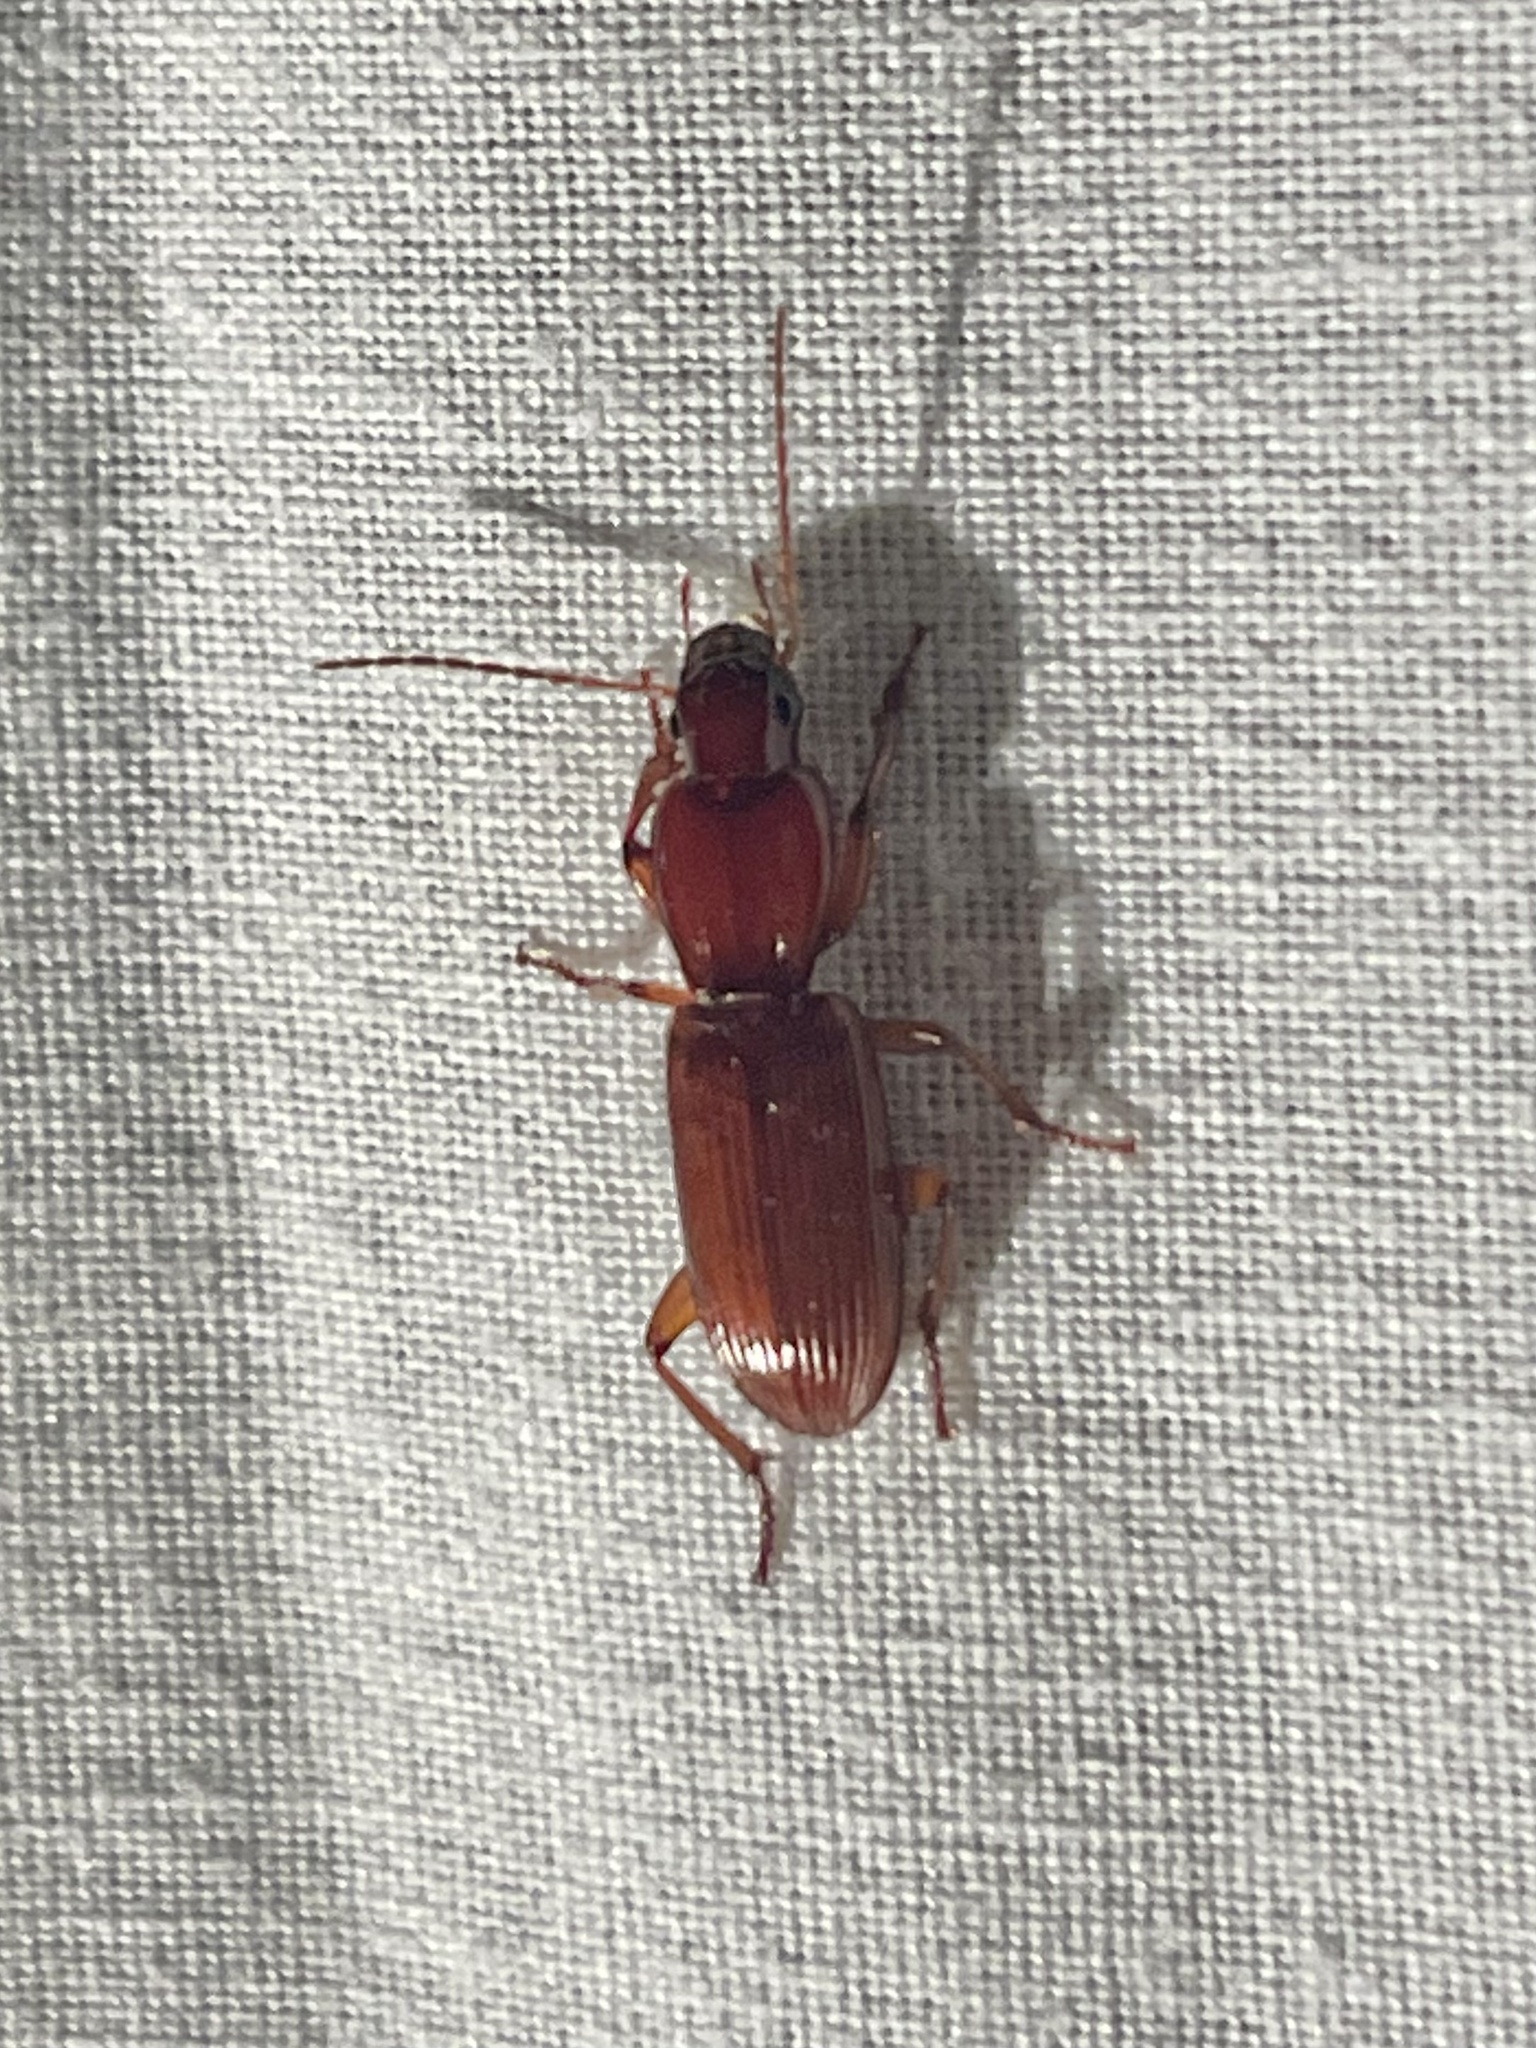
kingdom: Animalia
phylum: Arthropoda
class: Insecta
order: Coleoptera
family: Carabidae
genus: Stenomorphus
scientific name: Stenomorphus californicus
